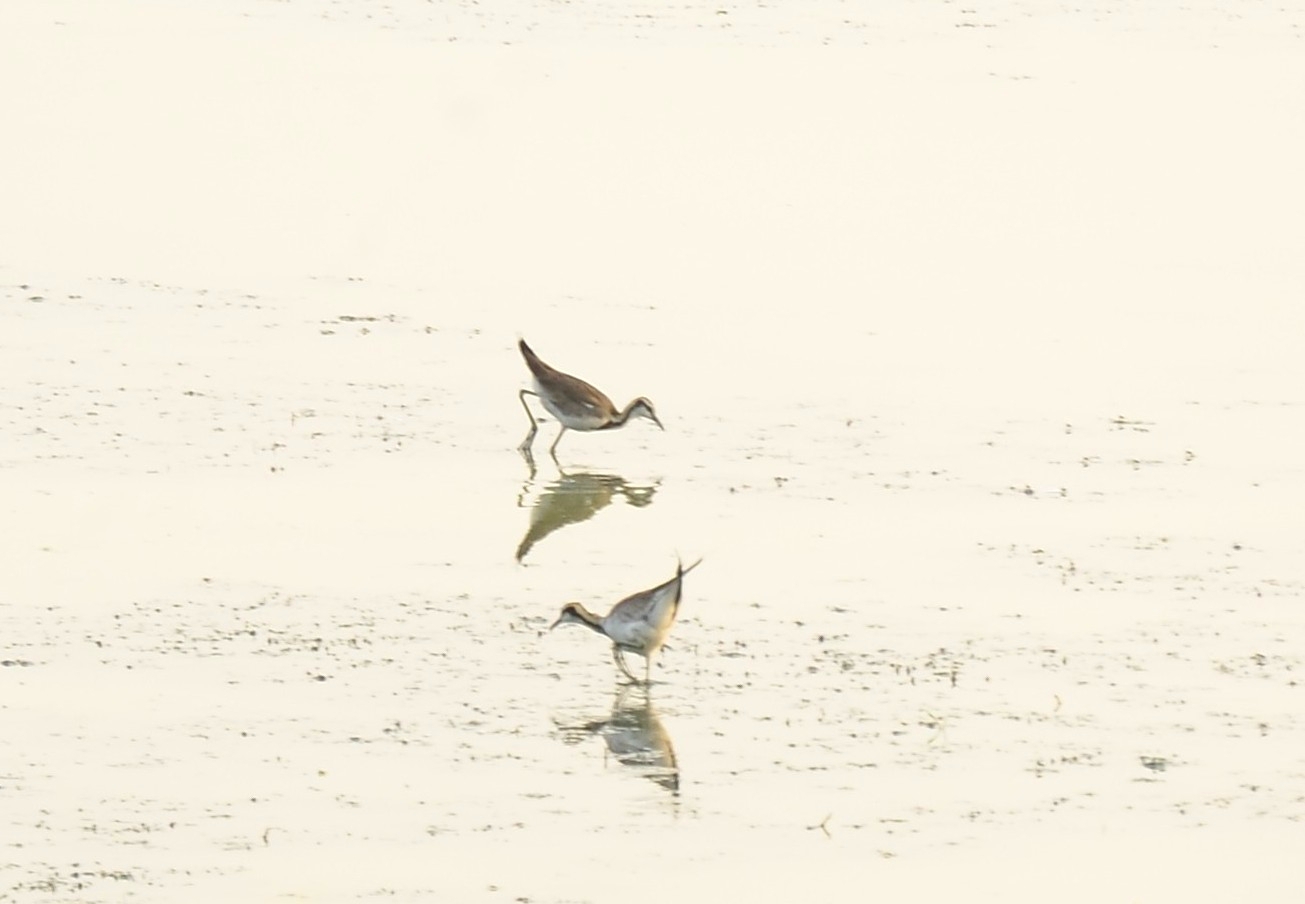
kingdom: Animalia
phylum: Chordata
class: Aves
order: Charadriiformes
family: Jacanidae
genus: Hydrophasianus
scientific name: Hydrophasianus chirurgus
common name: Pheasant-tailed jacana
